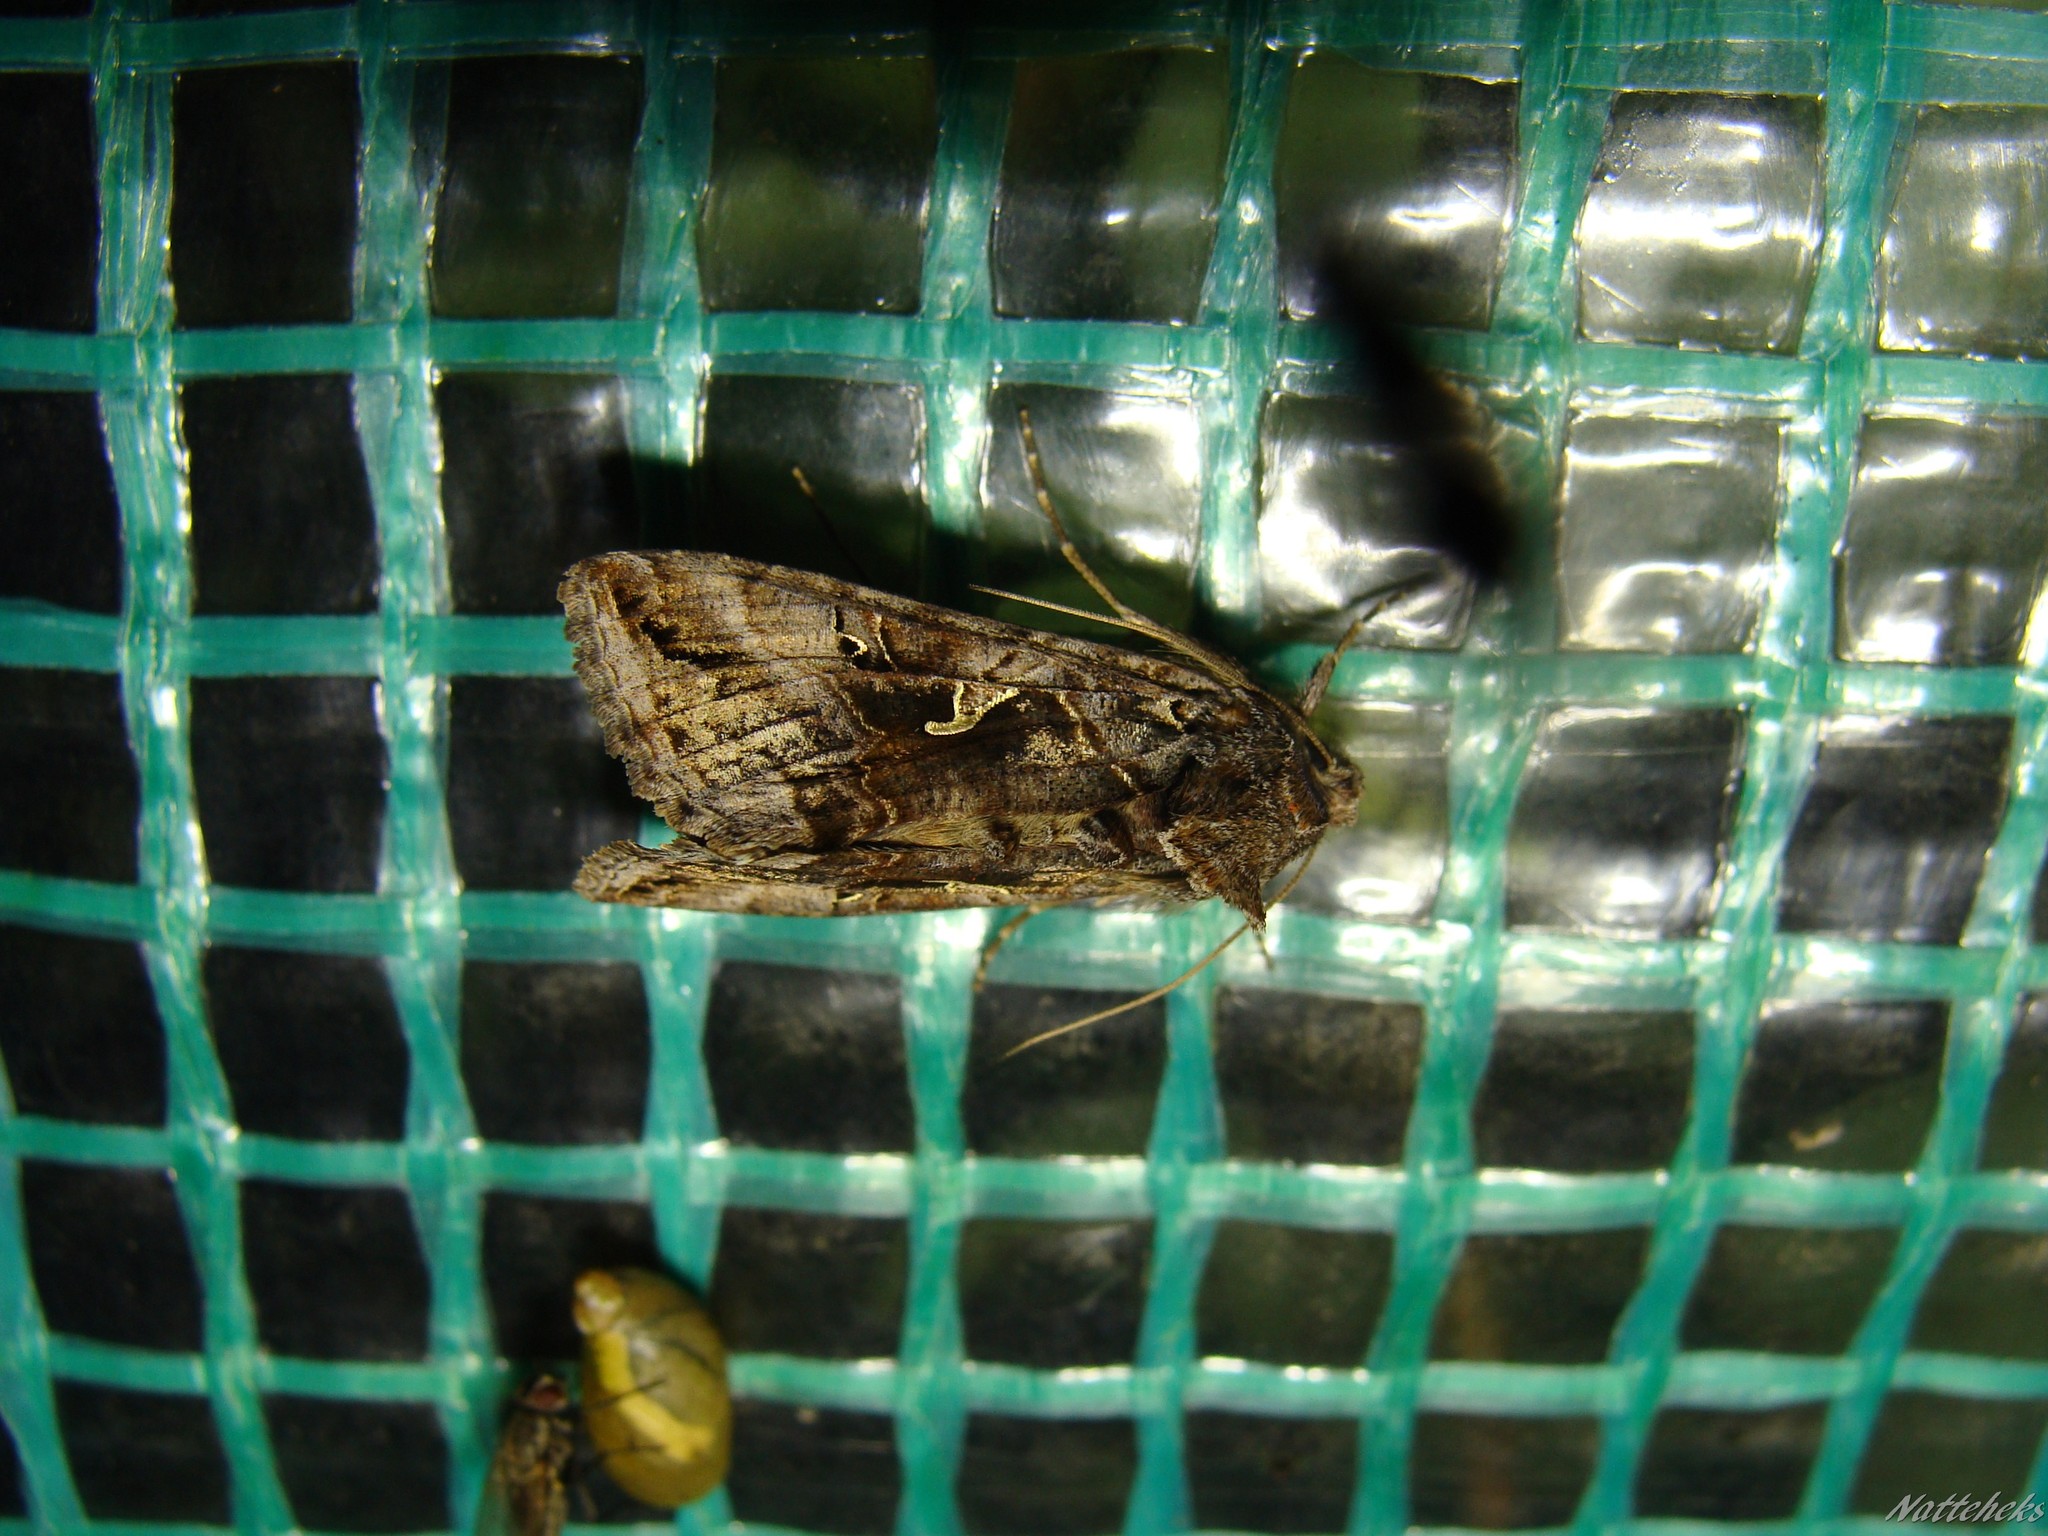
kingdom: Animalia
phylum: Arthropoda
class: Insecta
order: Lepidoptera
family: Noctuidae
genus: Autographa
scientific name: Autographa gamma
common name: Silver y
